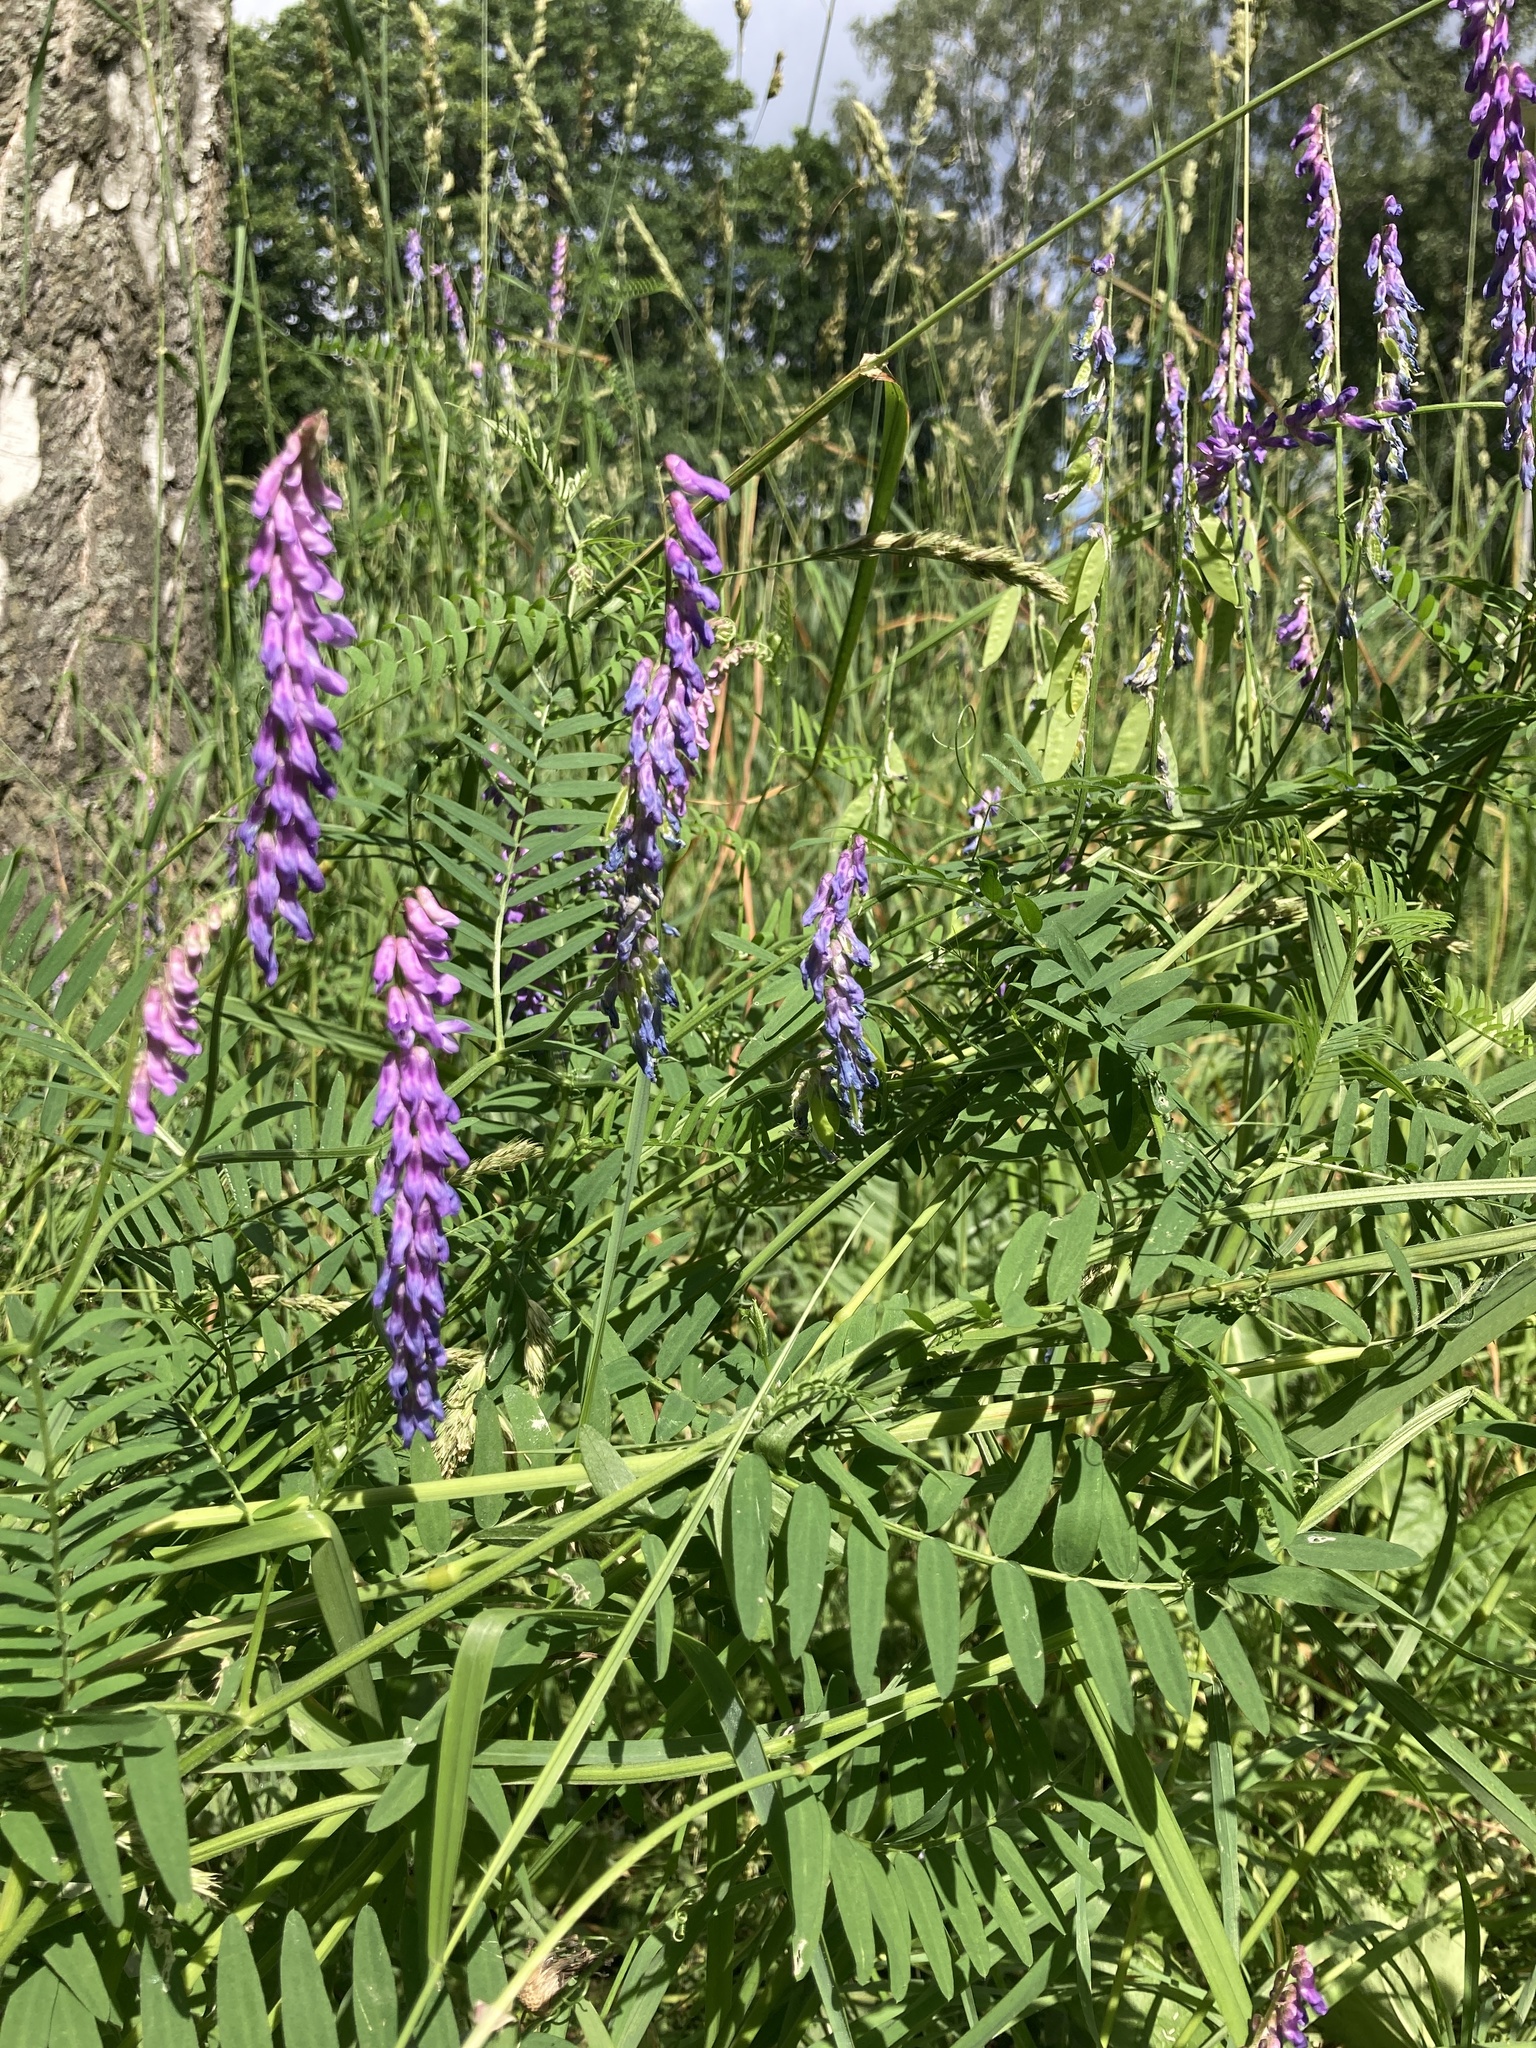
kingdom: Plantae
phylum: Tracheophyta
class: Magnoliopsida
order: Fabales
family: Fabaceae
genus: Vicia
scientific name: Vicia cracca
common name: Bird vetch
